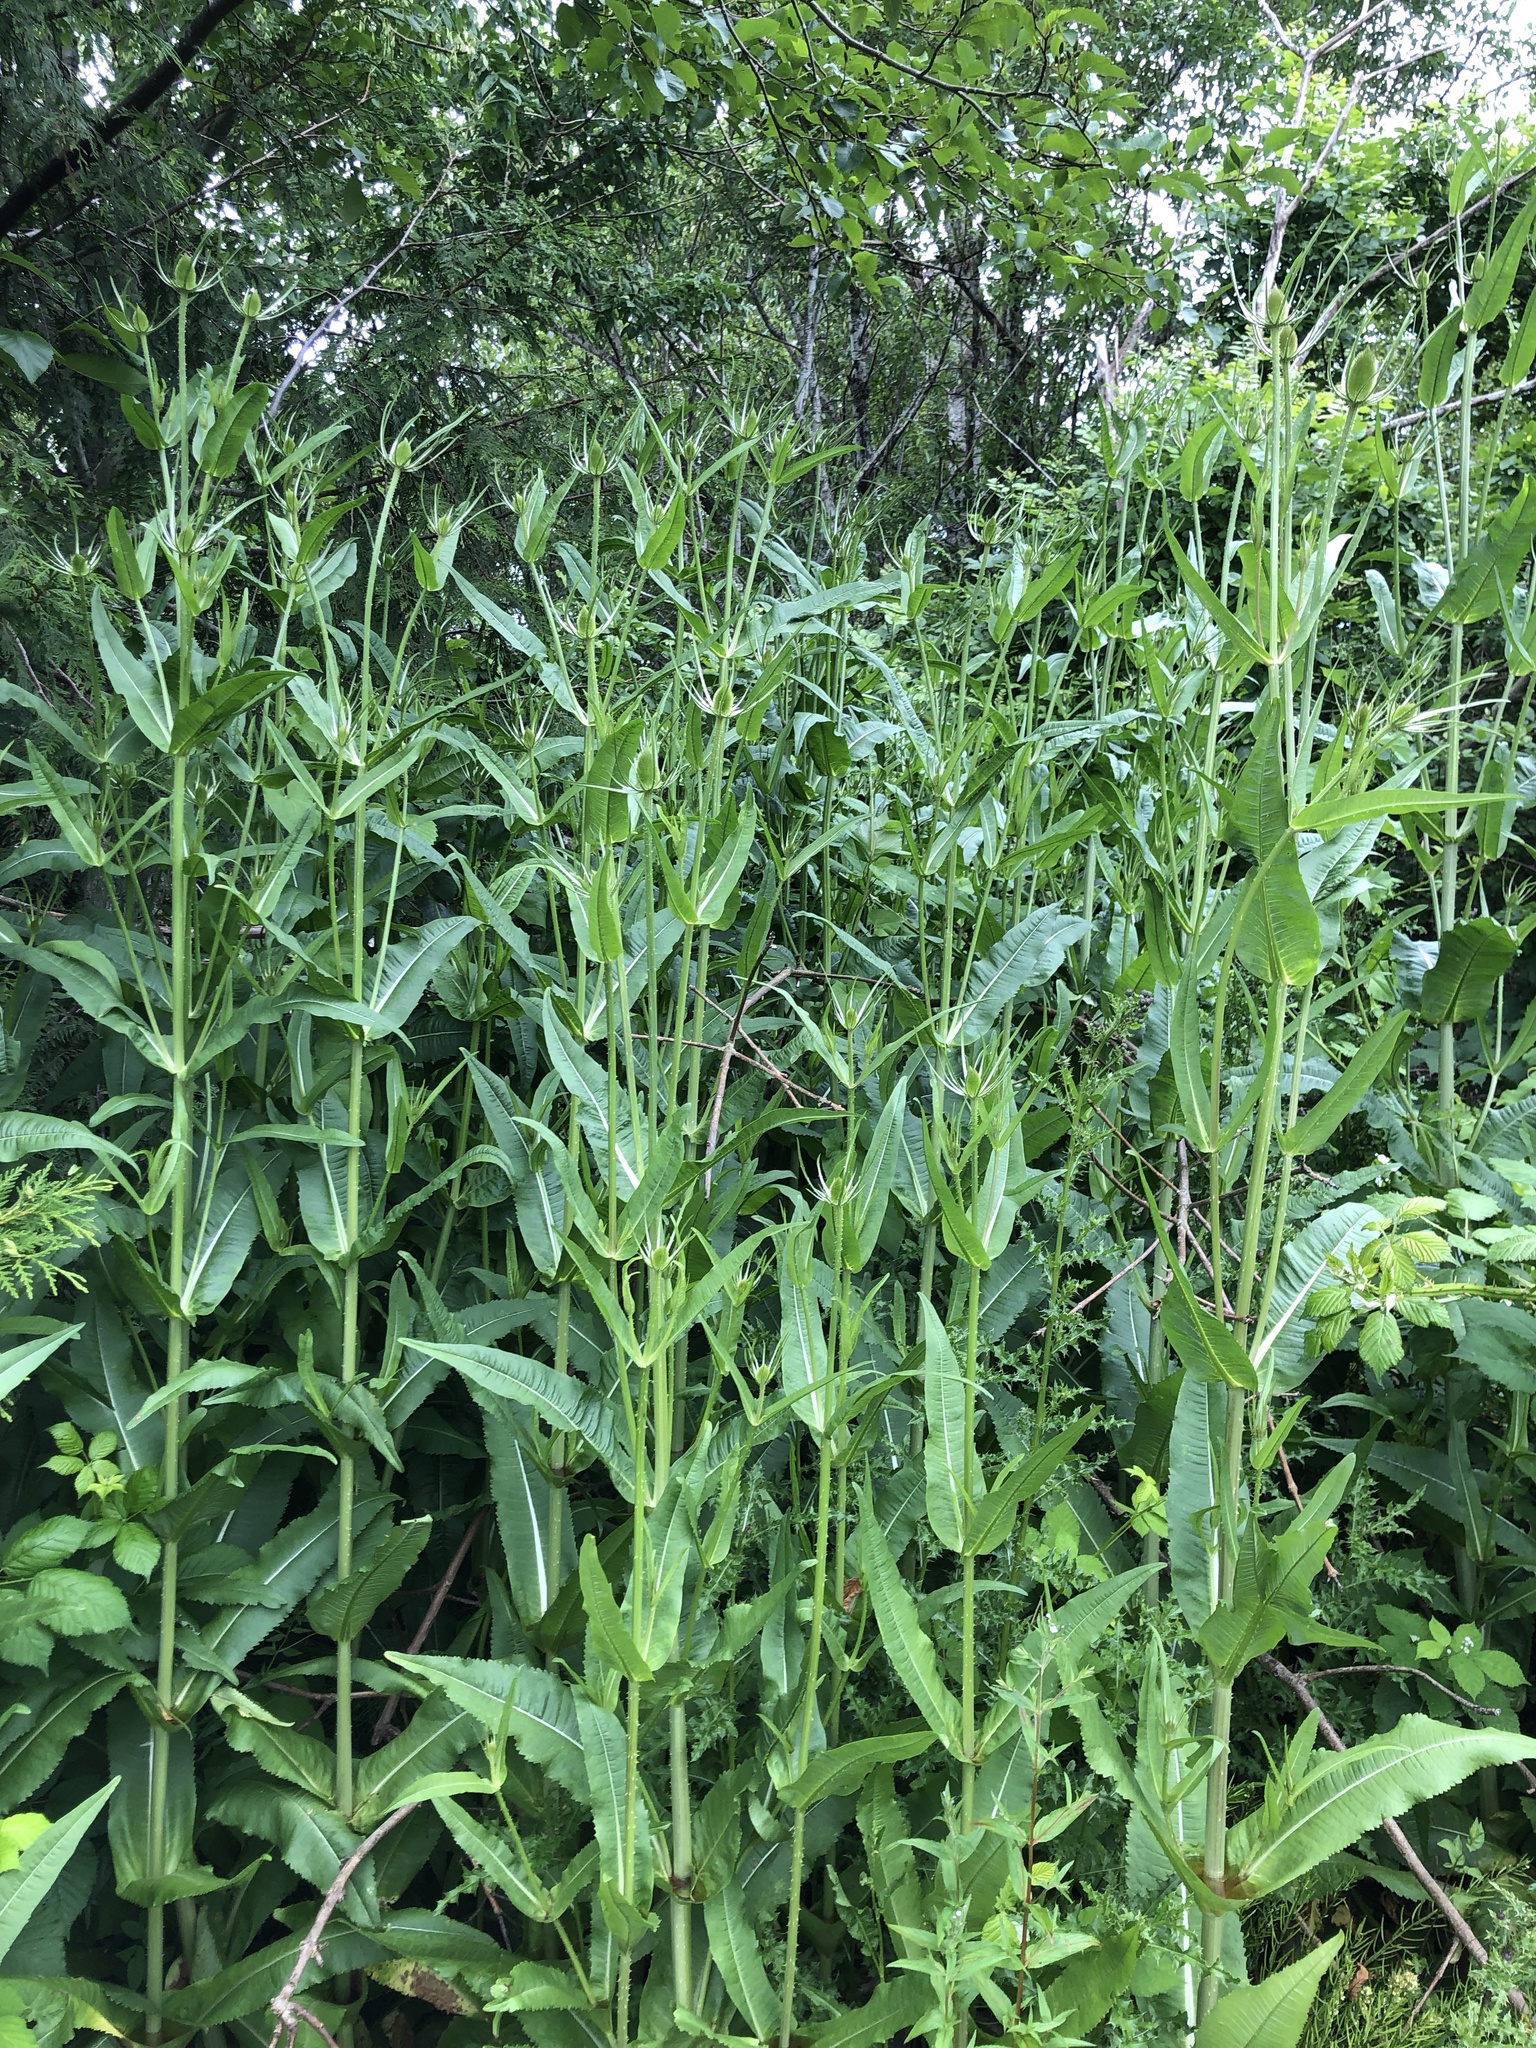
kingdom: Plantae
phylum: Tracheophyta
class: Magnoliopsida
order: Dipsacales
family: Caprifoliaceae
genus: Dipsacus
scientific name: Dipsacus fullonum
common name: Teasel
